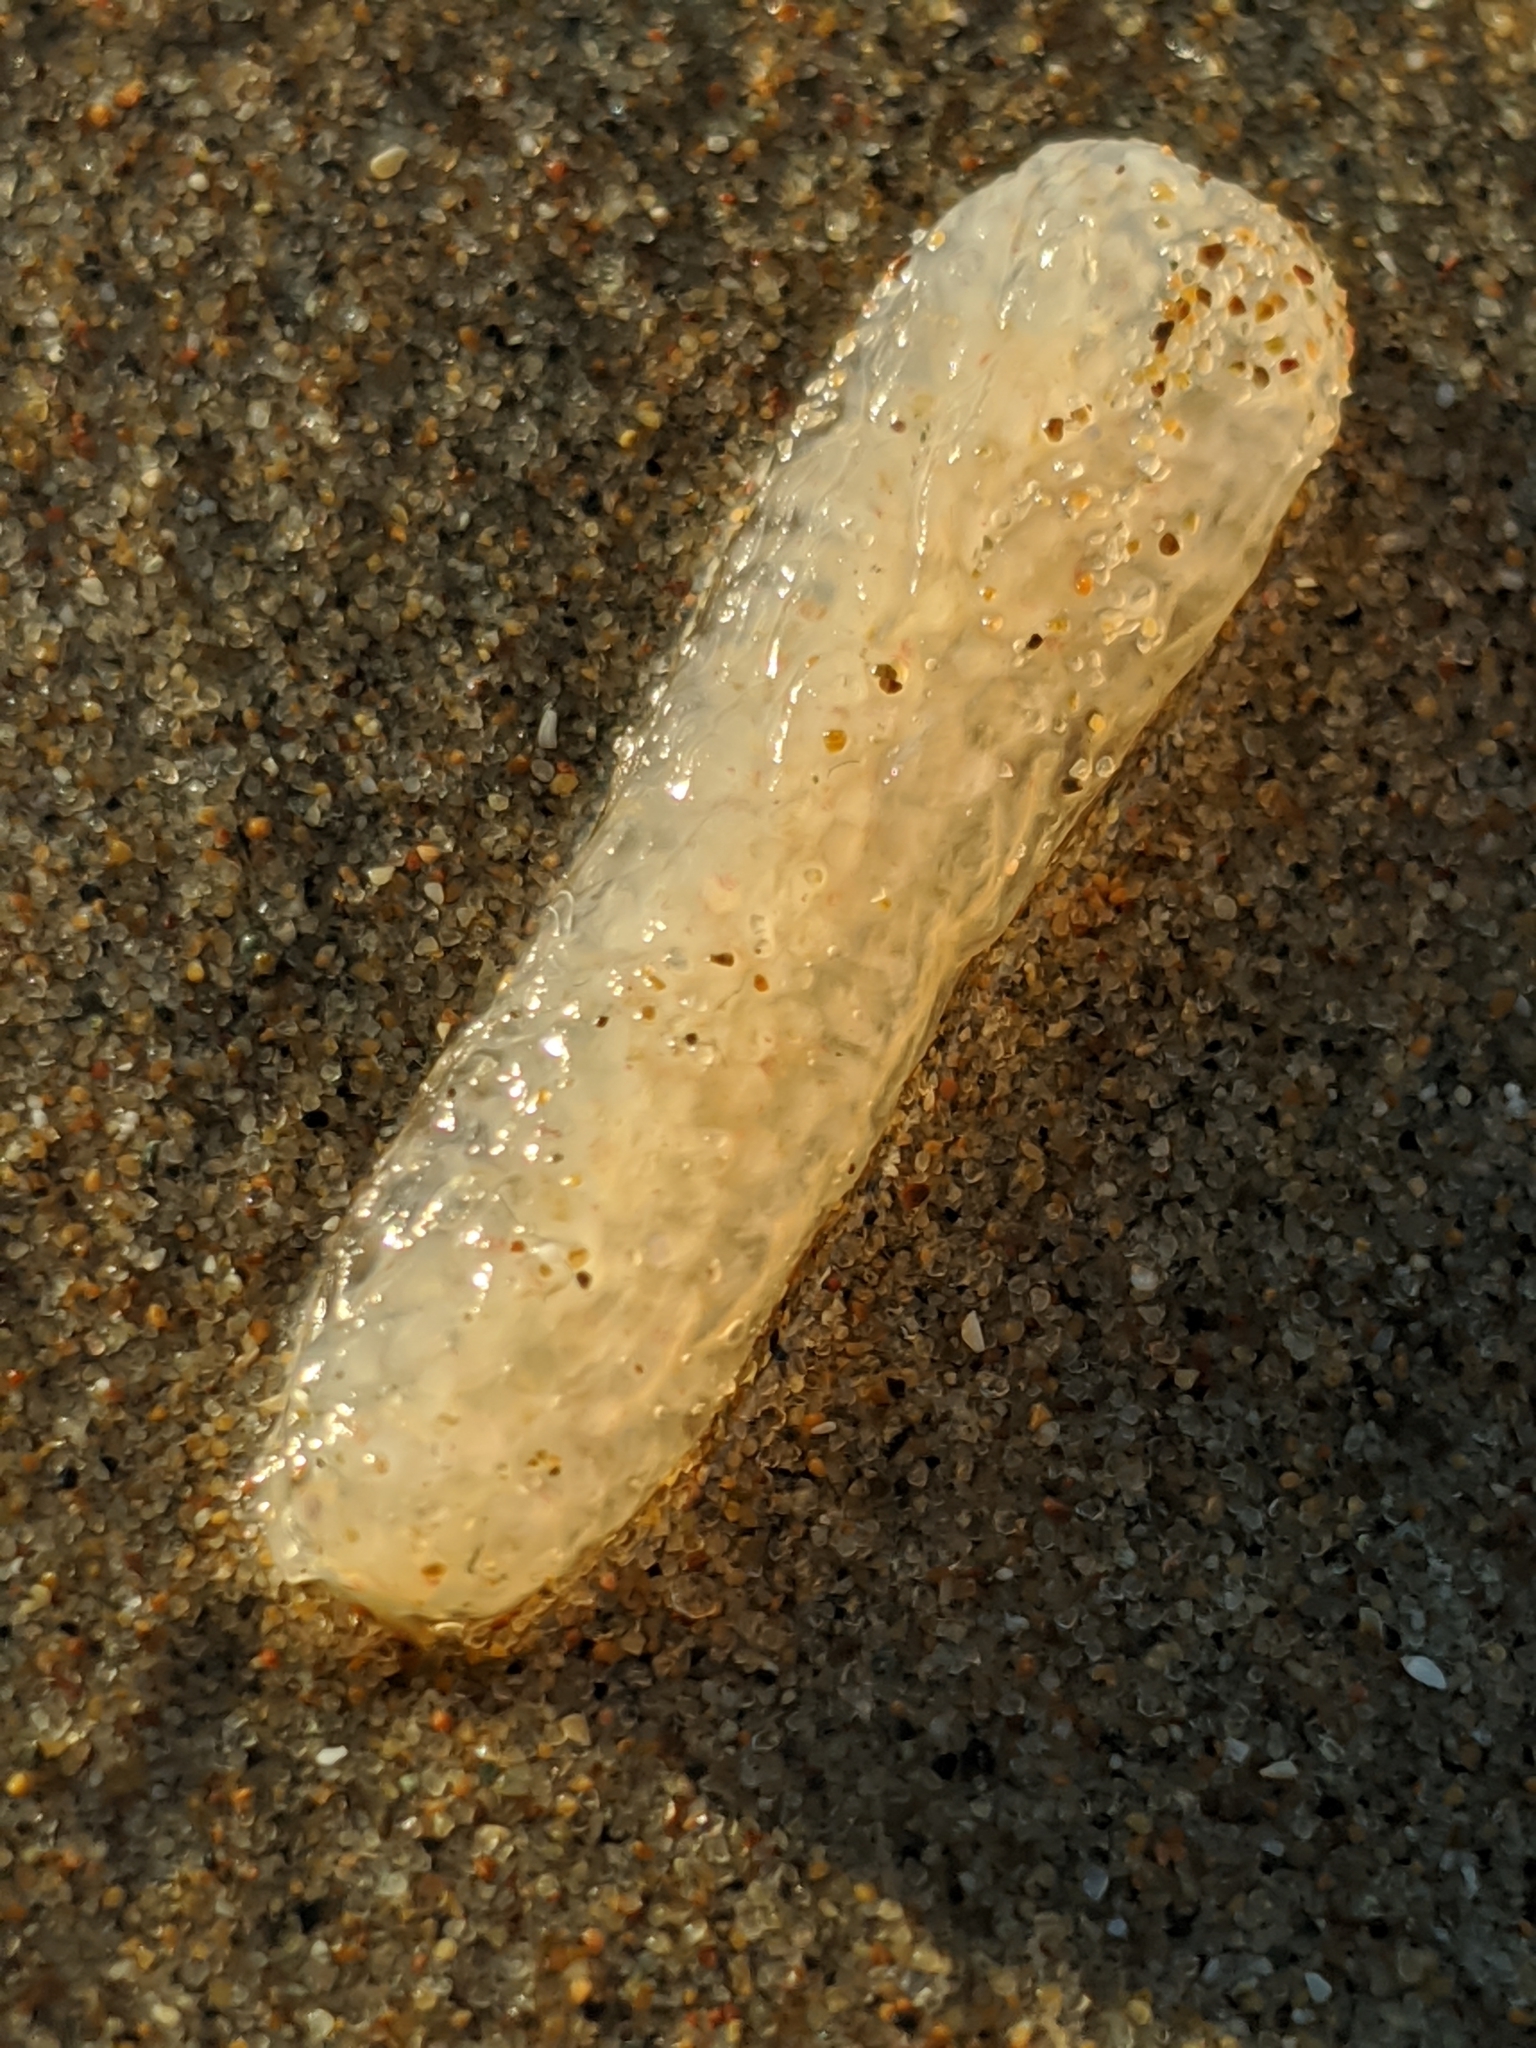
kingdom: Animalia
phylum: Chordata
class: Thaliacea
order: Pyrosomatida
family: Pyrosomatidae
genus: Pyrosoma
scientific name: Pyrosoma atlanticum
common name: Atlantic pyrosomes
